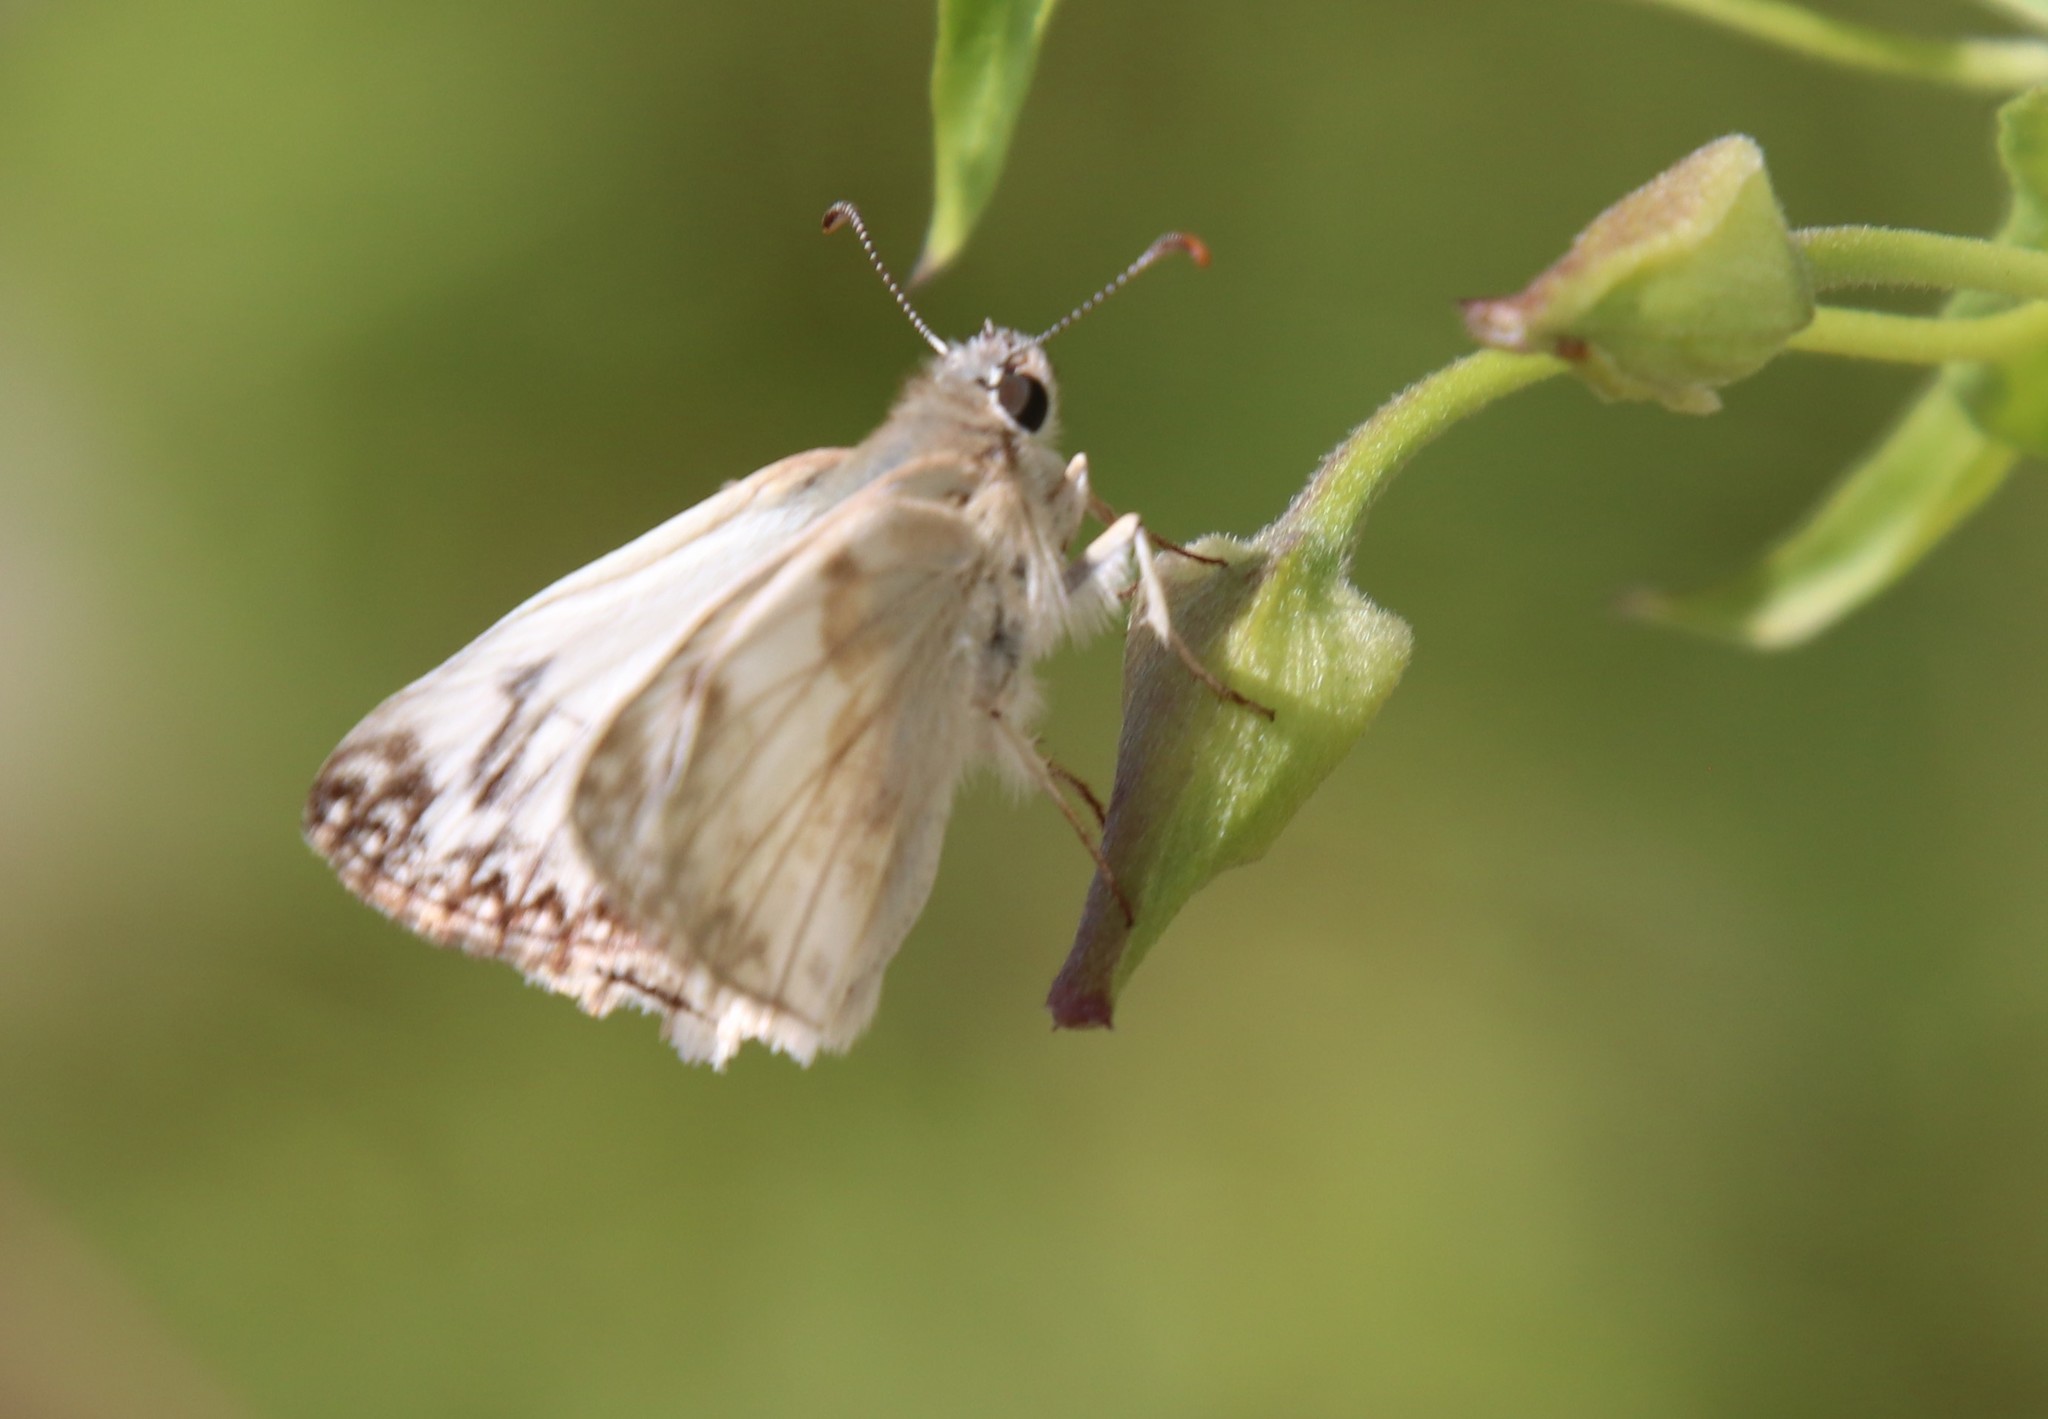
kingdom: Animalia
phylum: Arthropoda
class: Insecta
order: Lepidoptera
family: Hesperiidae
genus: Heliopetes
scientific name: Heliopetes ericetorum
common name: Northern white-skipper
